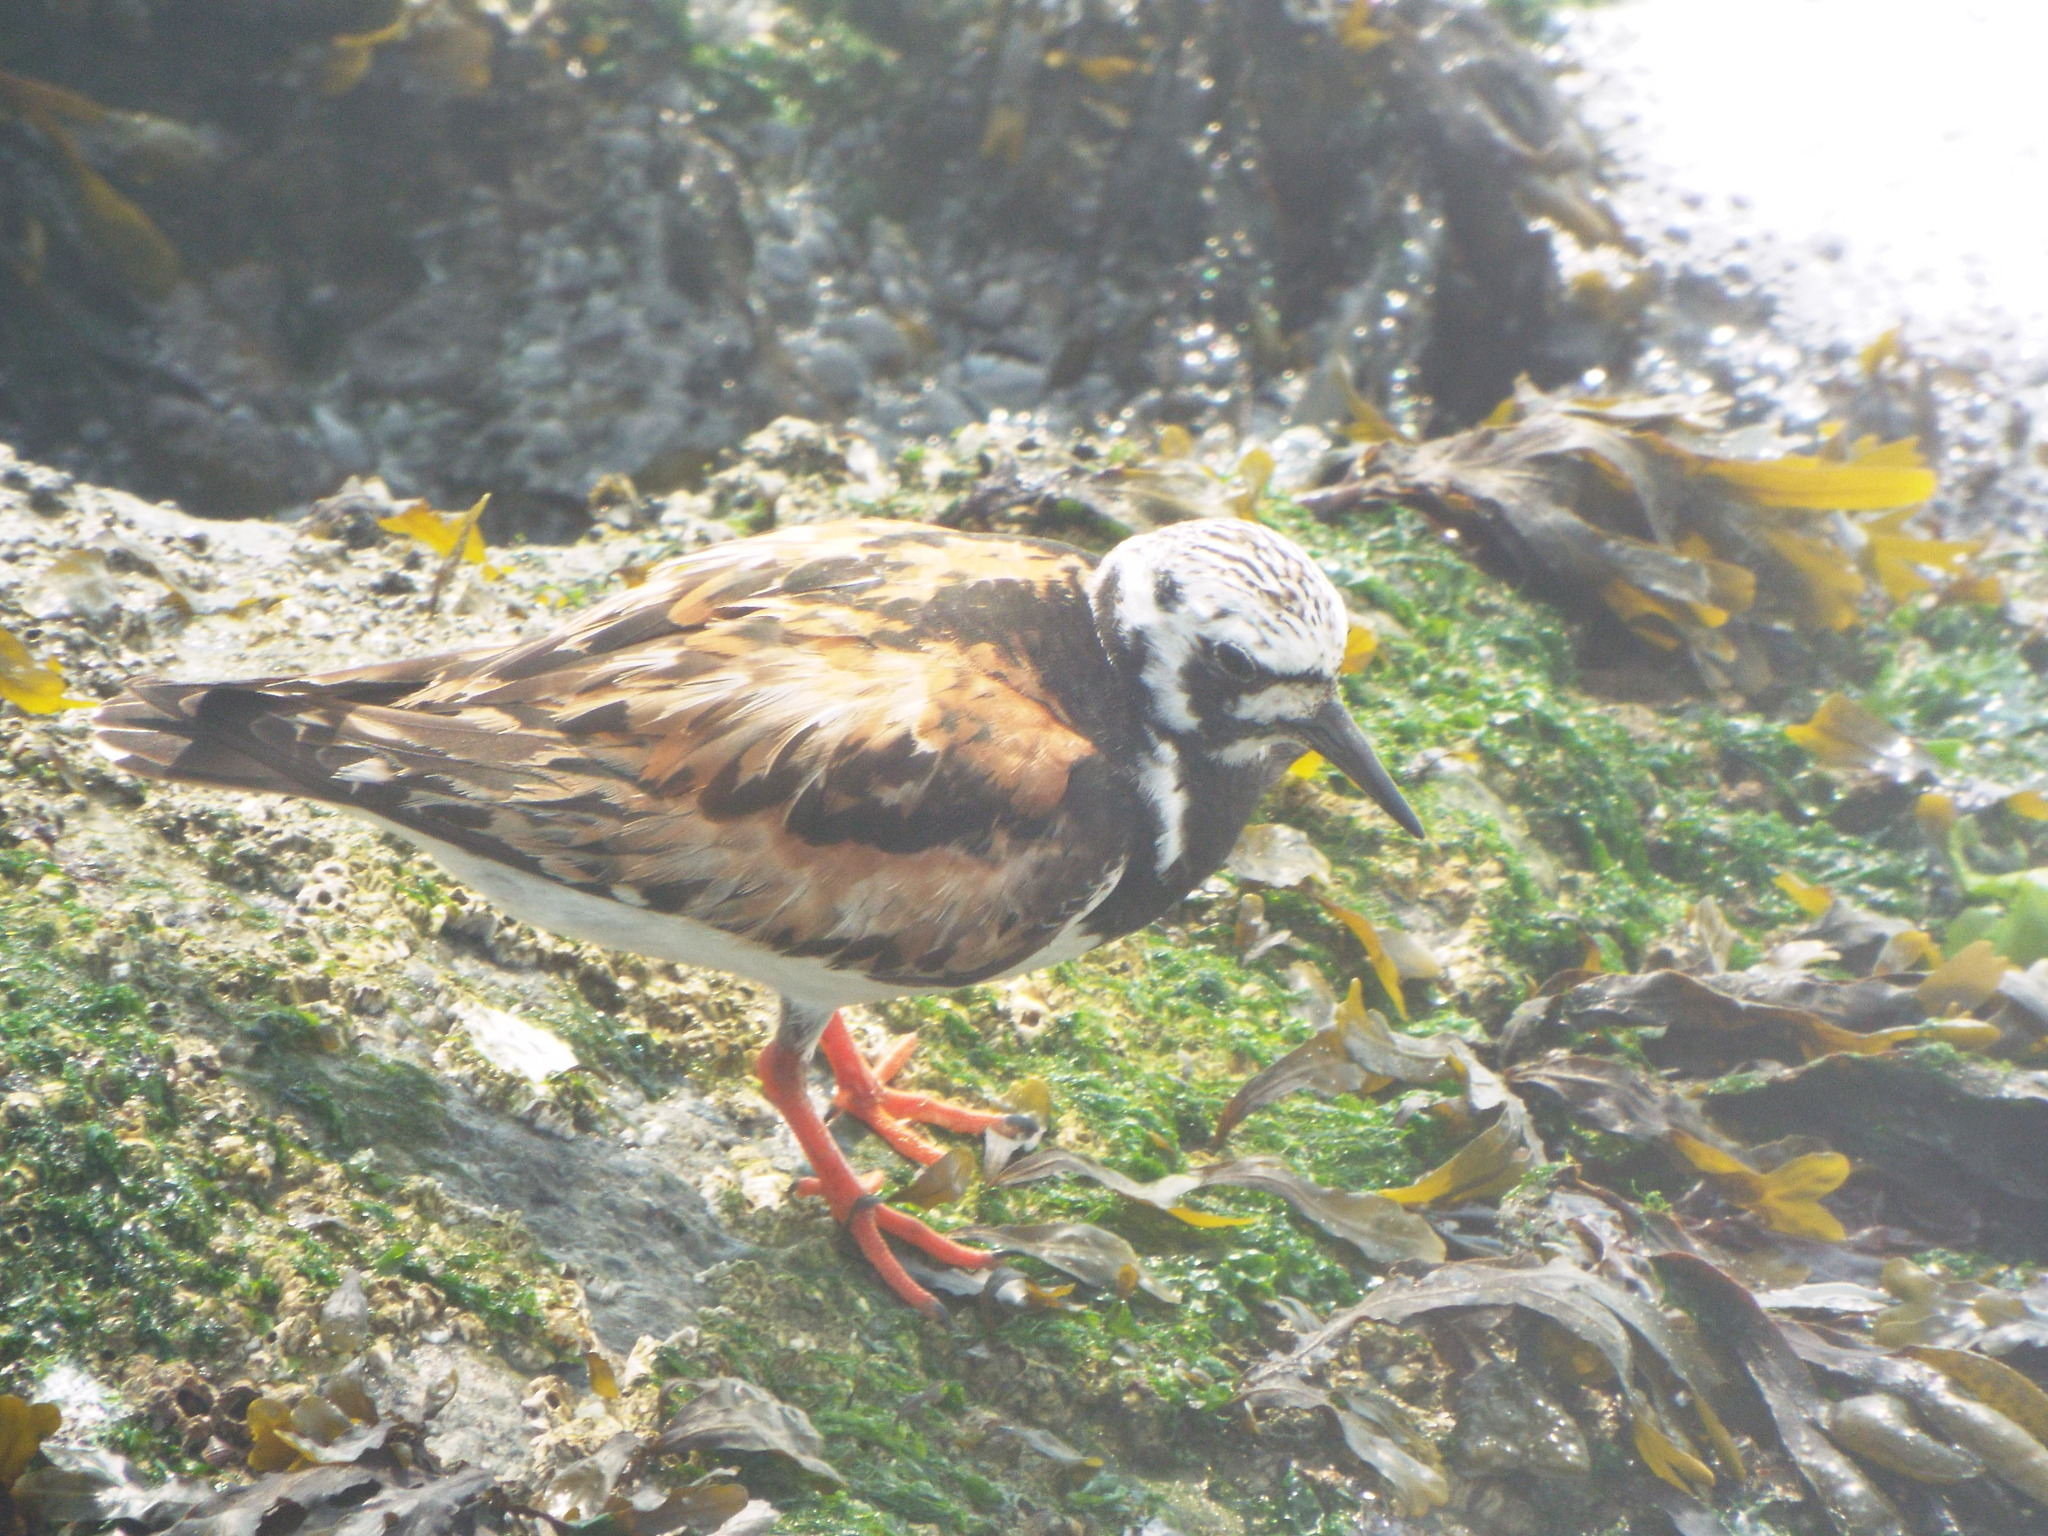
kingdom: Animalia
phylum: Chordata
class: Aves
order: Charadriiformes
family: Scolopacidae
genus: Arenaria
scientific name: Arenaria interpres
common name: Ruddy turnstone
